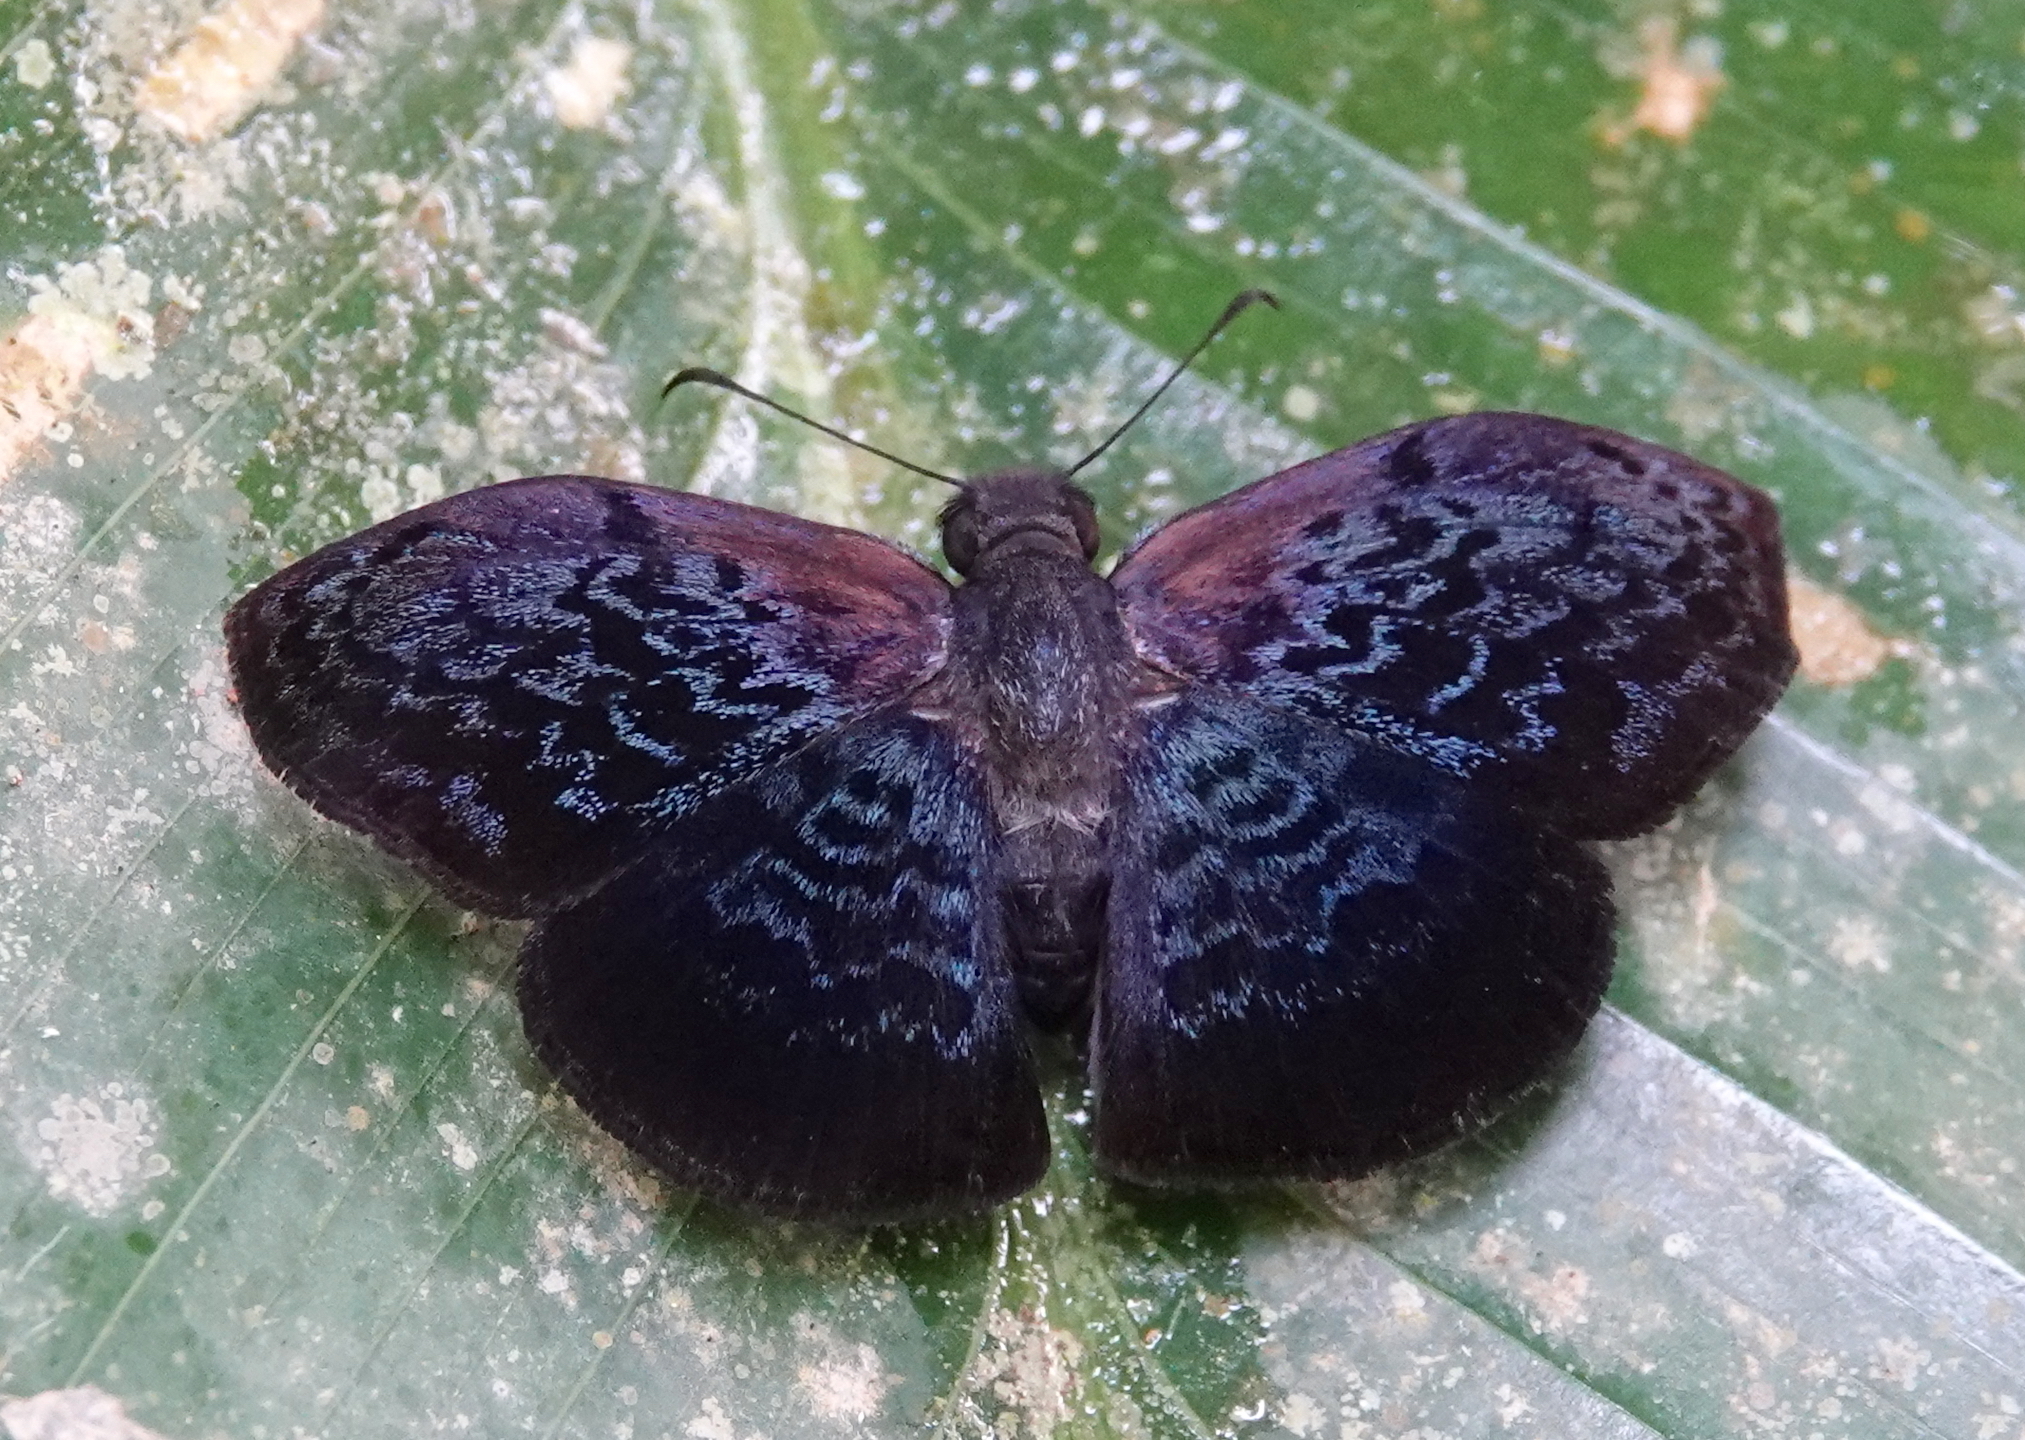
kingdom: Animalia
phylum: Arthropoda
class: Insecta
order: Lepidoptera
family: Hesperiidae
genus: Cycloglypha
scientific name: Cycloglypha enega
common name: Enega bent-skipper
